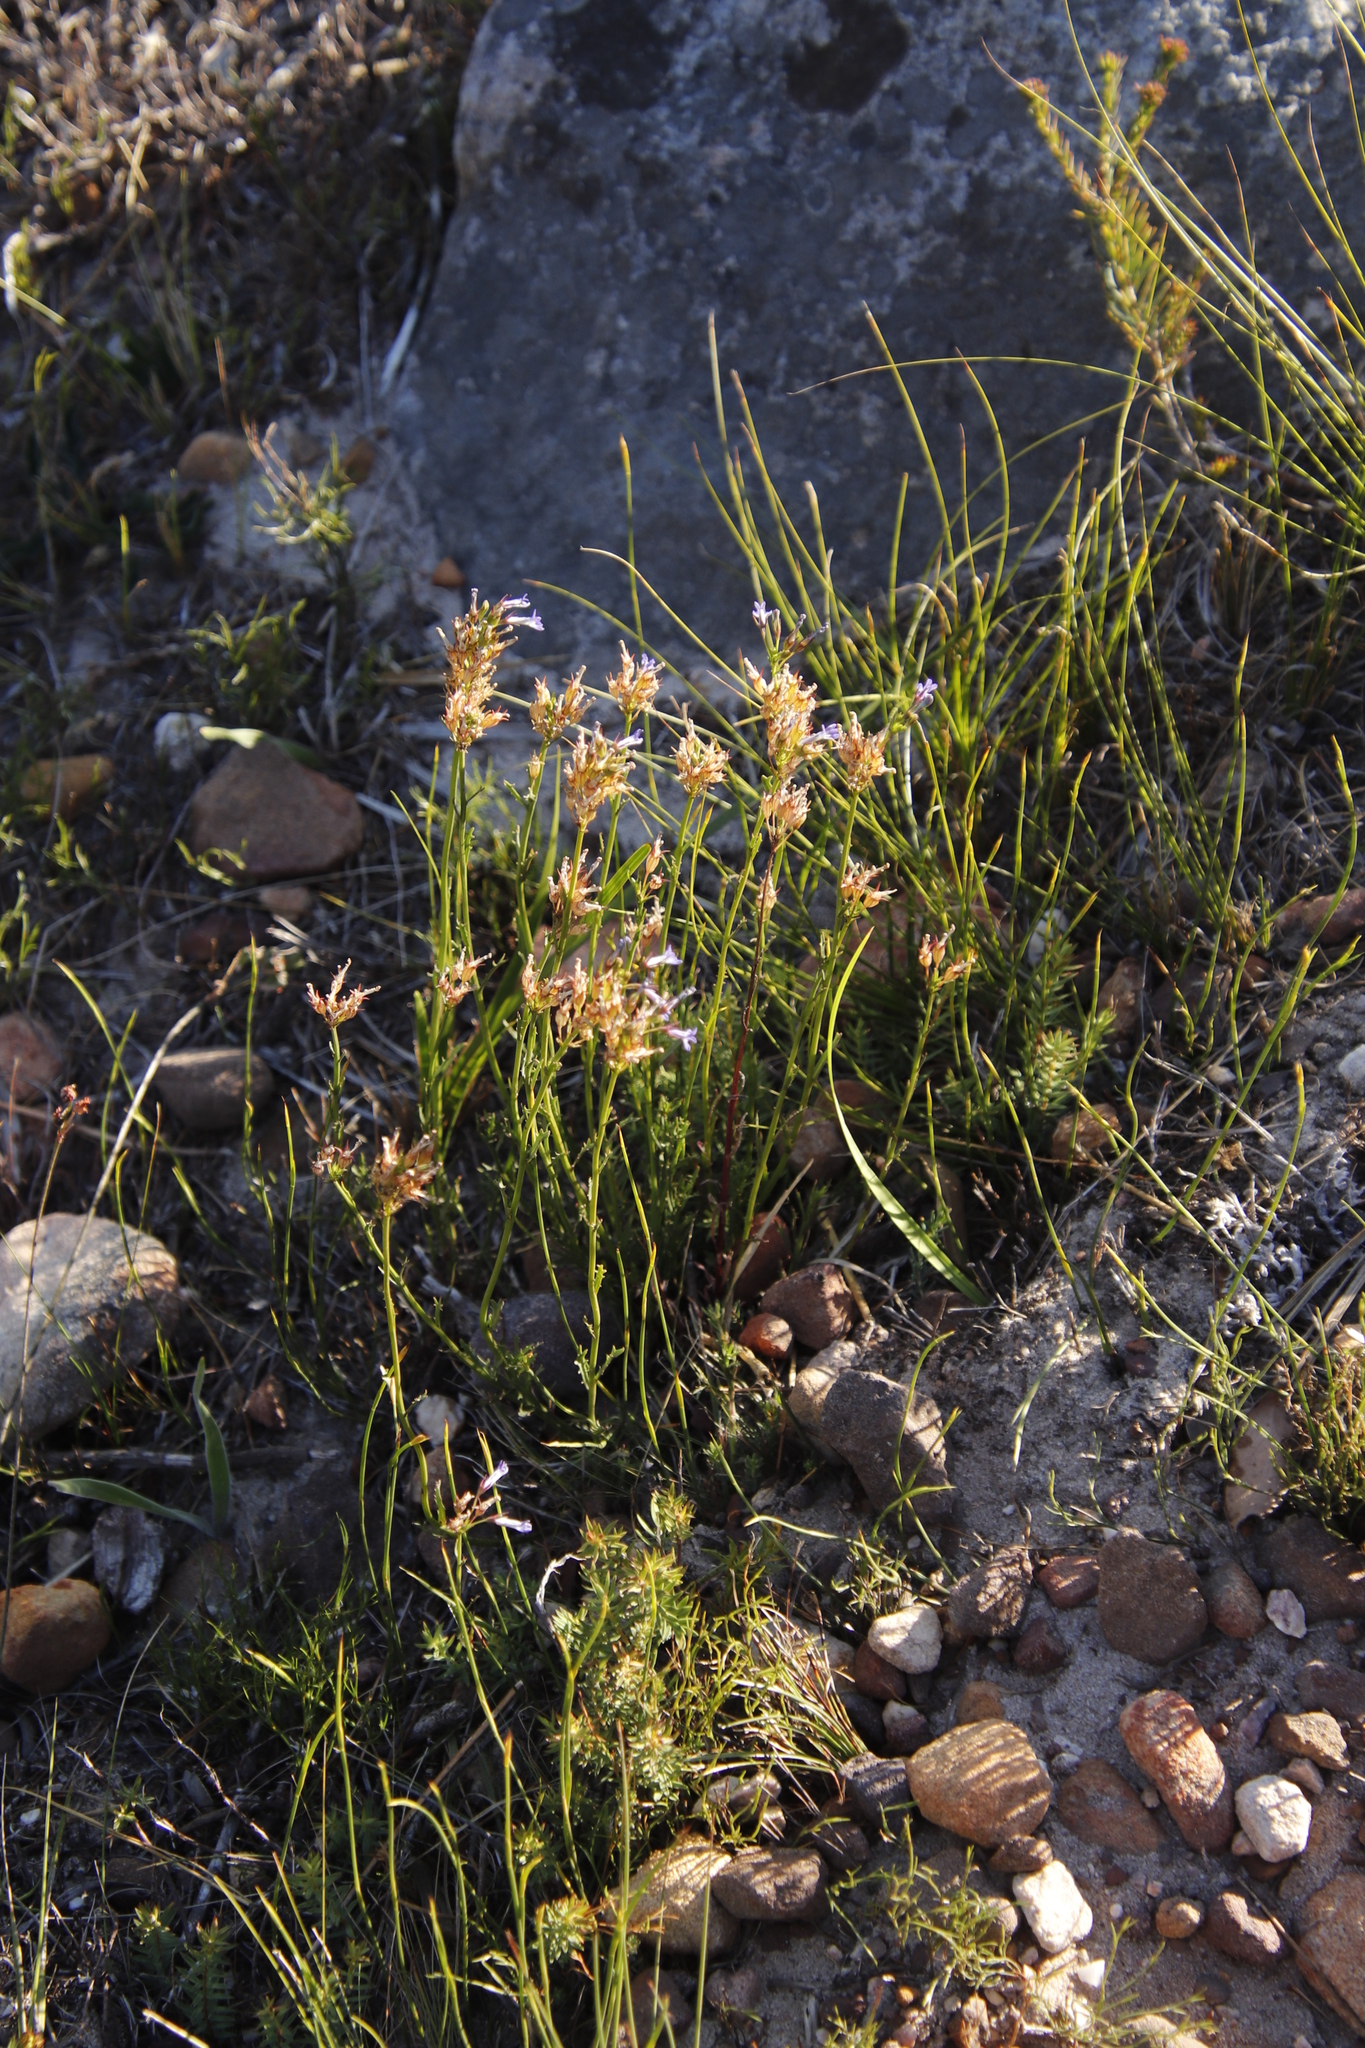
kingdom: Plantae
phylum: Tracheophyta
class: Magnoliopsida
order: Asterales
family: Campanulaceae
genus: Lobelia
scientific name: Lobelia comosa
